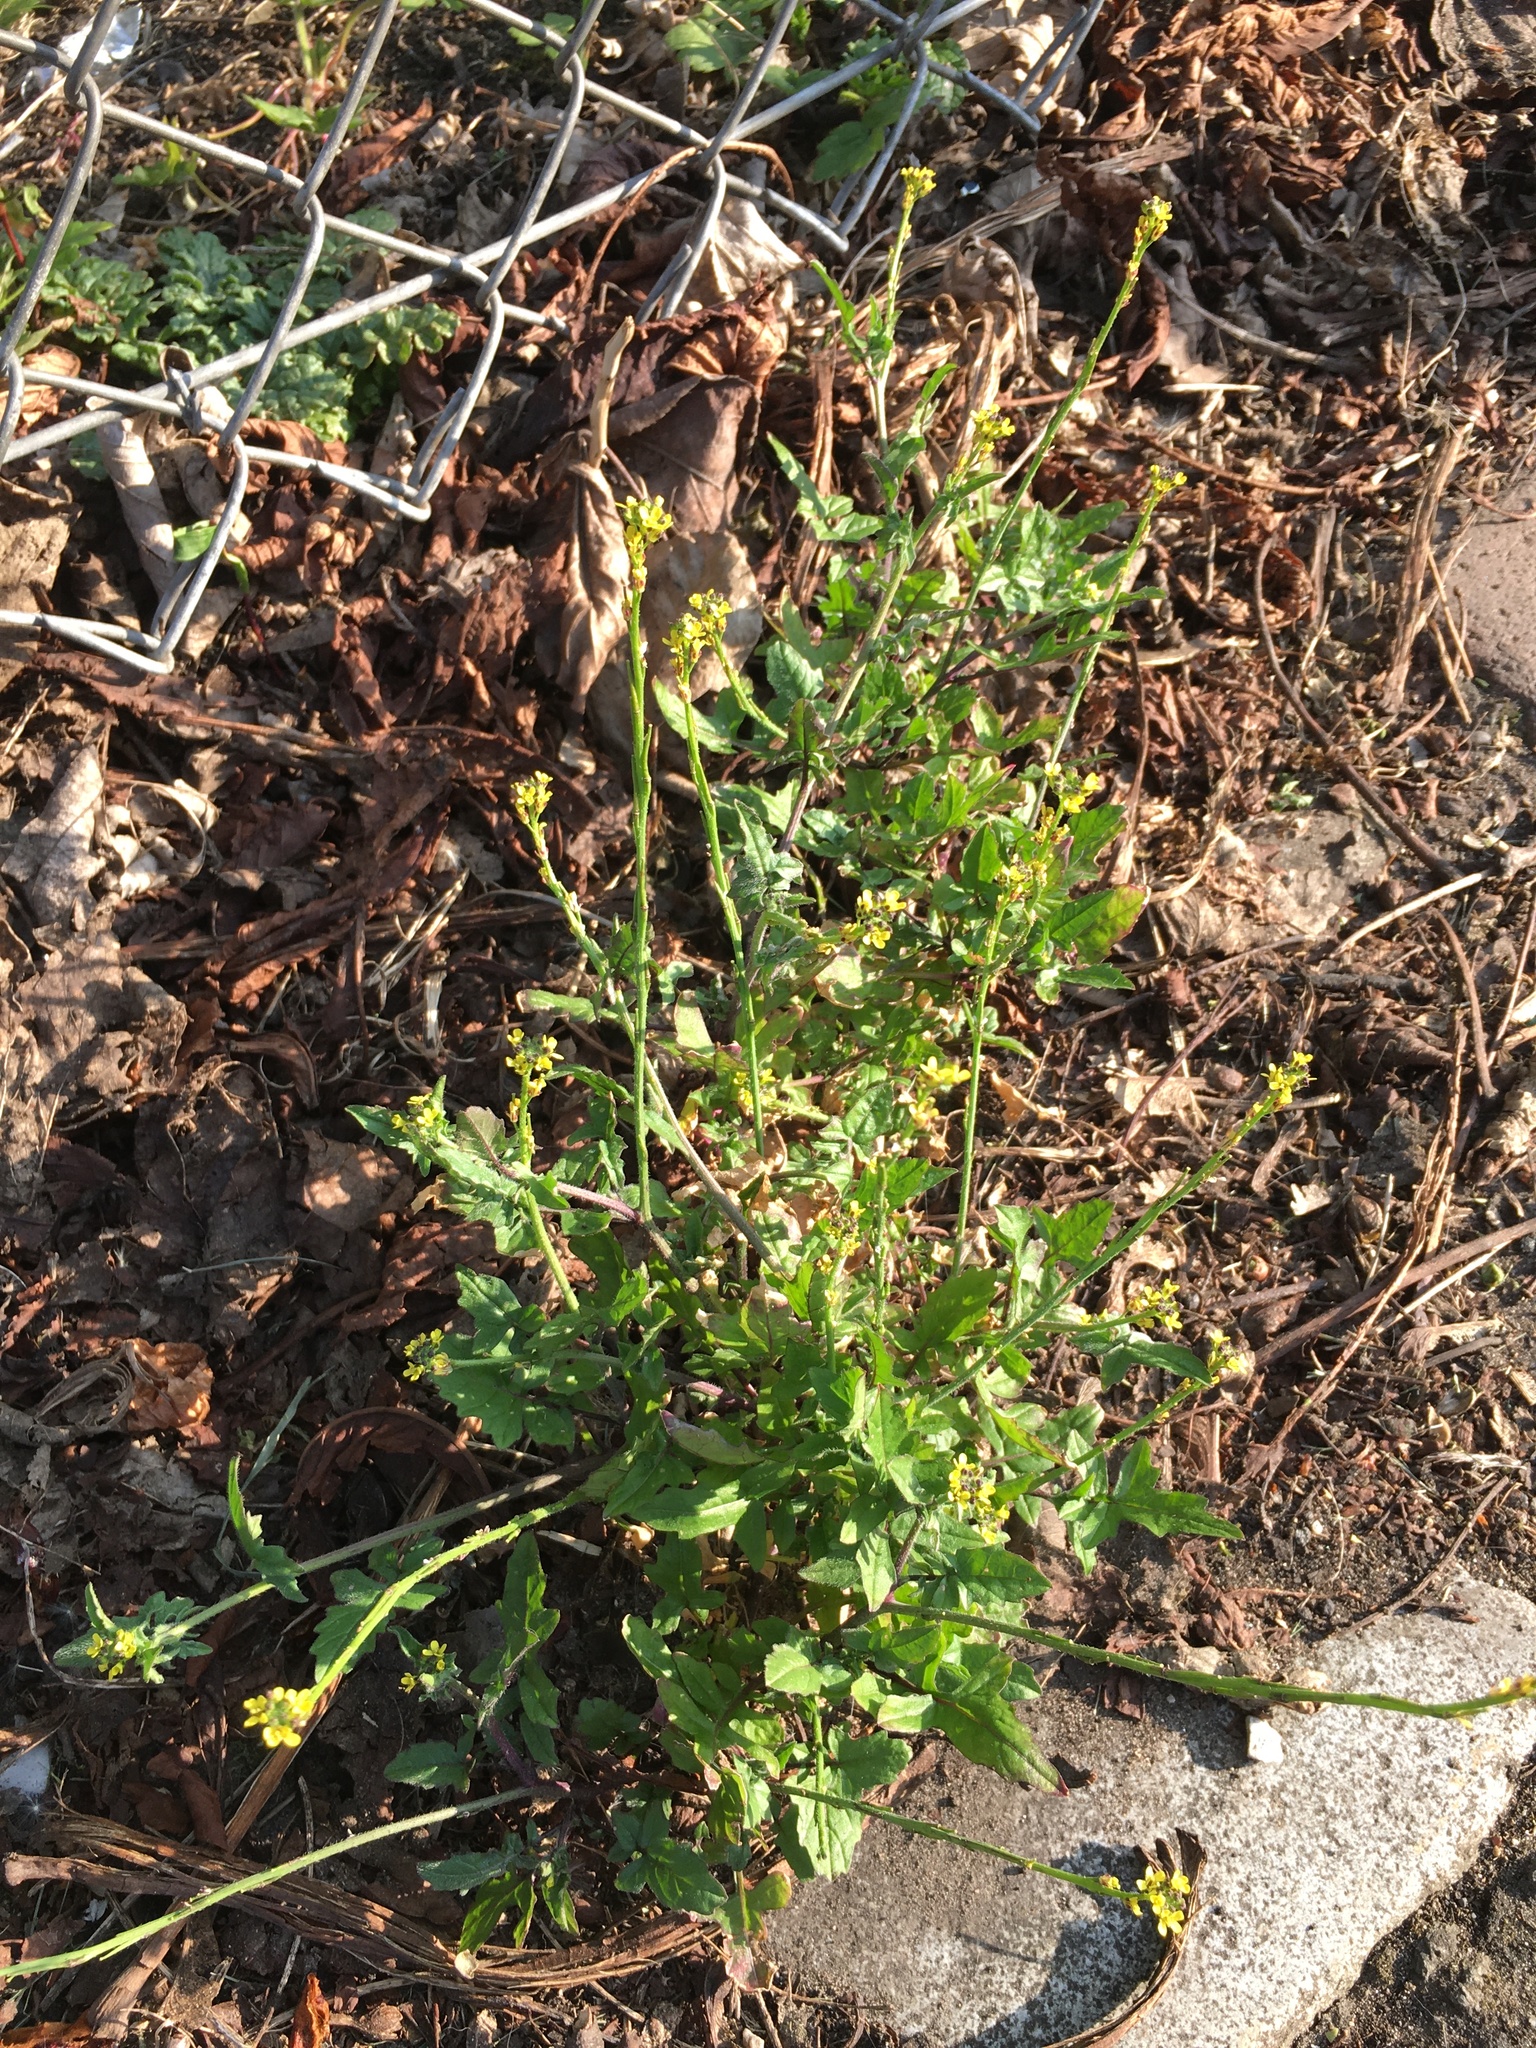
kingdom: Plantae
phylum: Tracheophyta
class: Magnoliopsida
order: Brassicales
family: Brassicaceae
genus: Sisymbrium
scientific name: Sisymbrium officinale
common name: Hedge mustard
